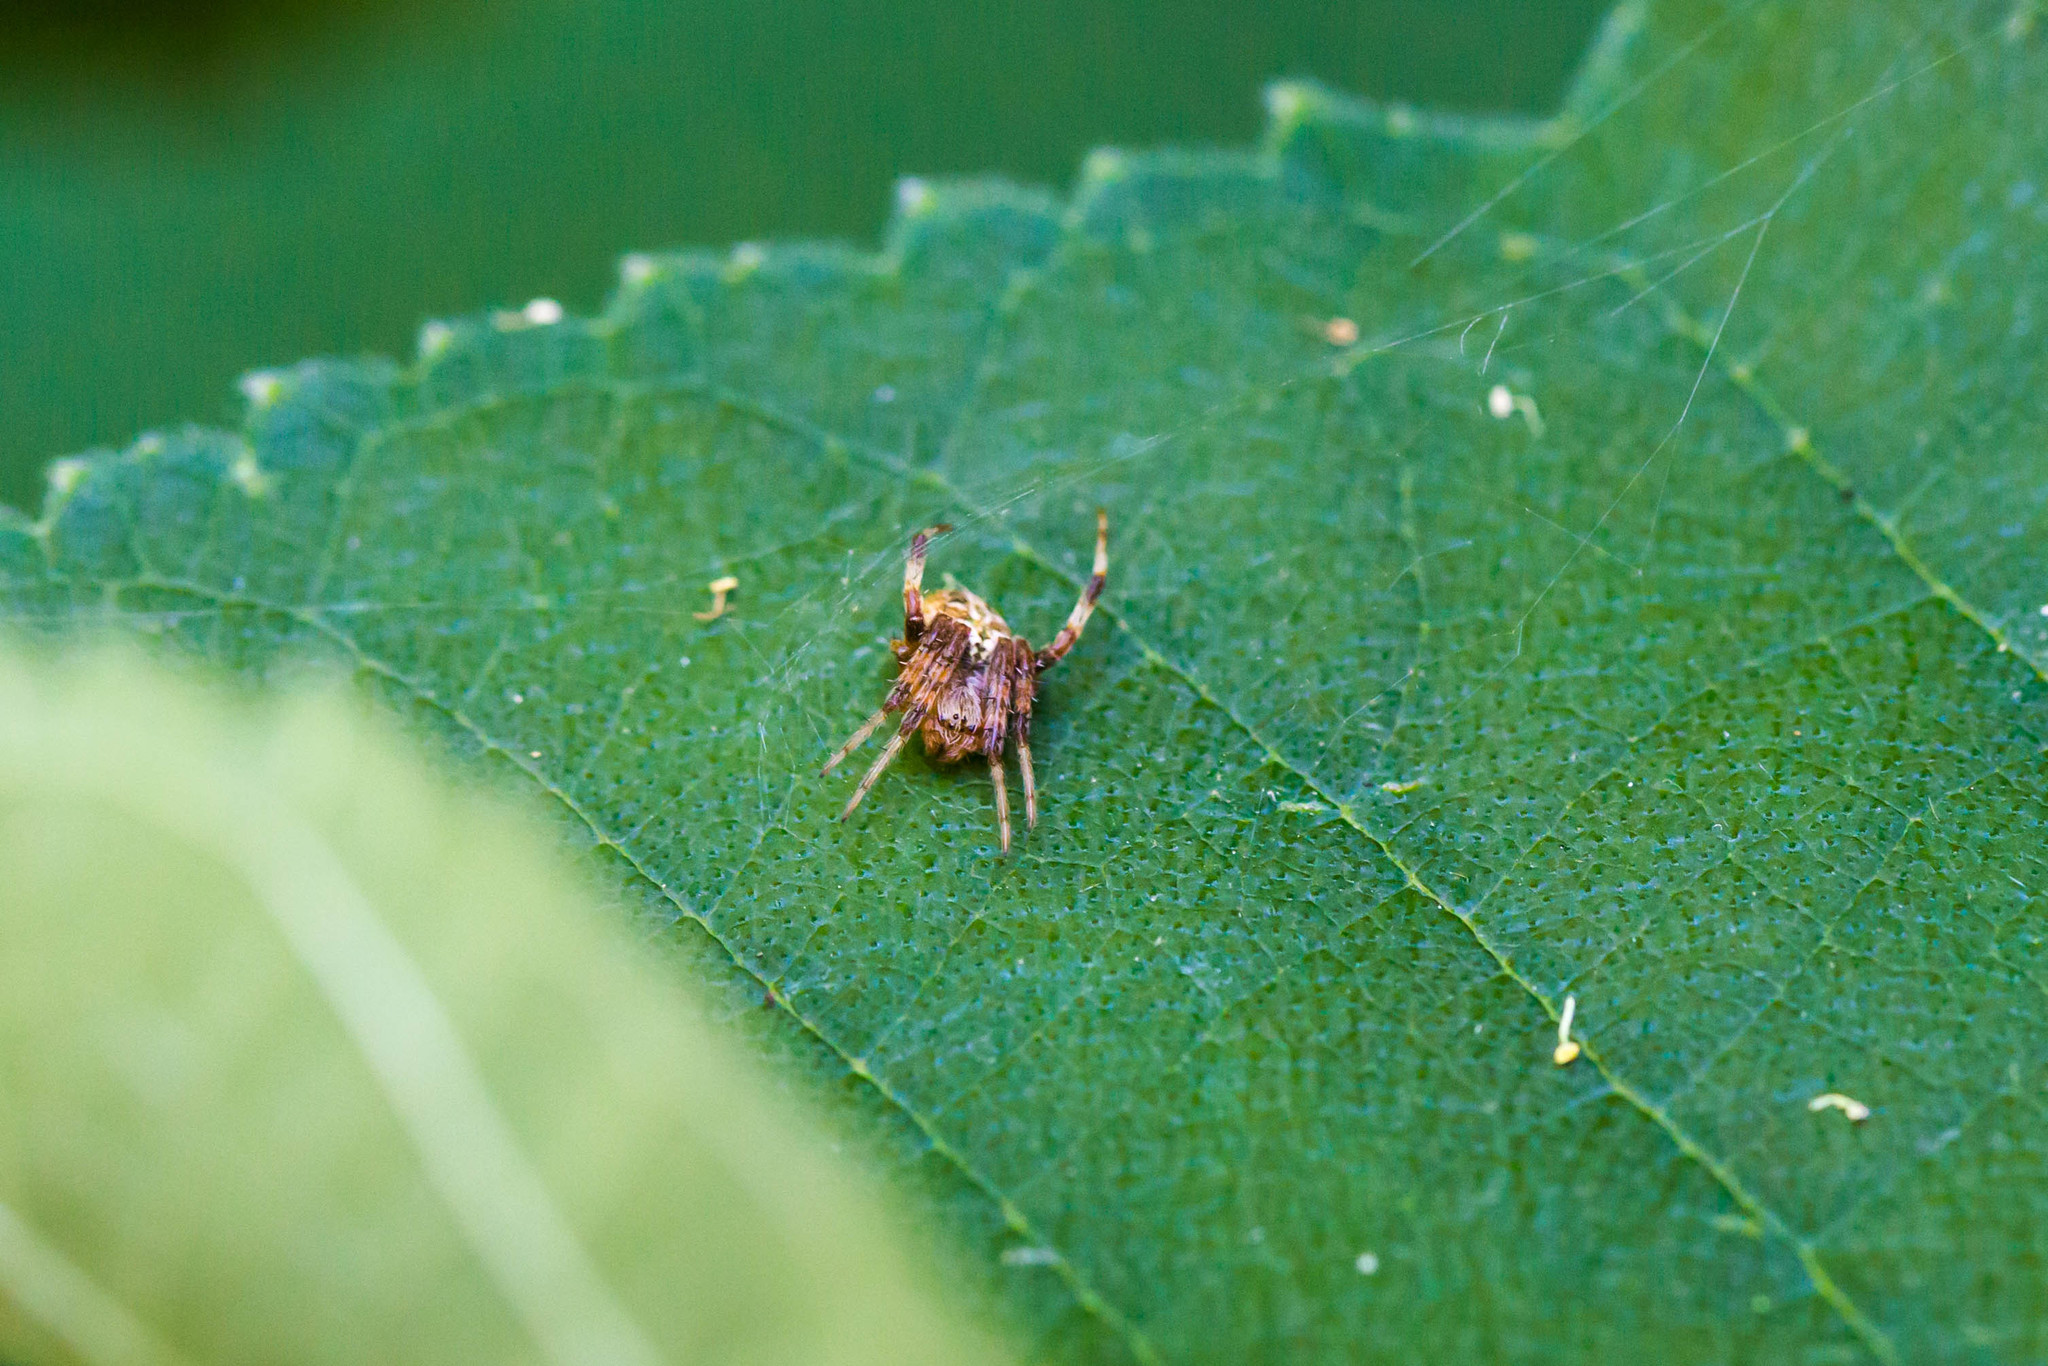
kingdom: Animalia
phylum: Arthropoda
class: Arachnida
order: Araneae
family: Araneidae
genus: Neoscona
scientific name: Neoscona arabesca
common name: Orb weavers
